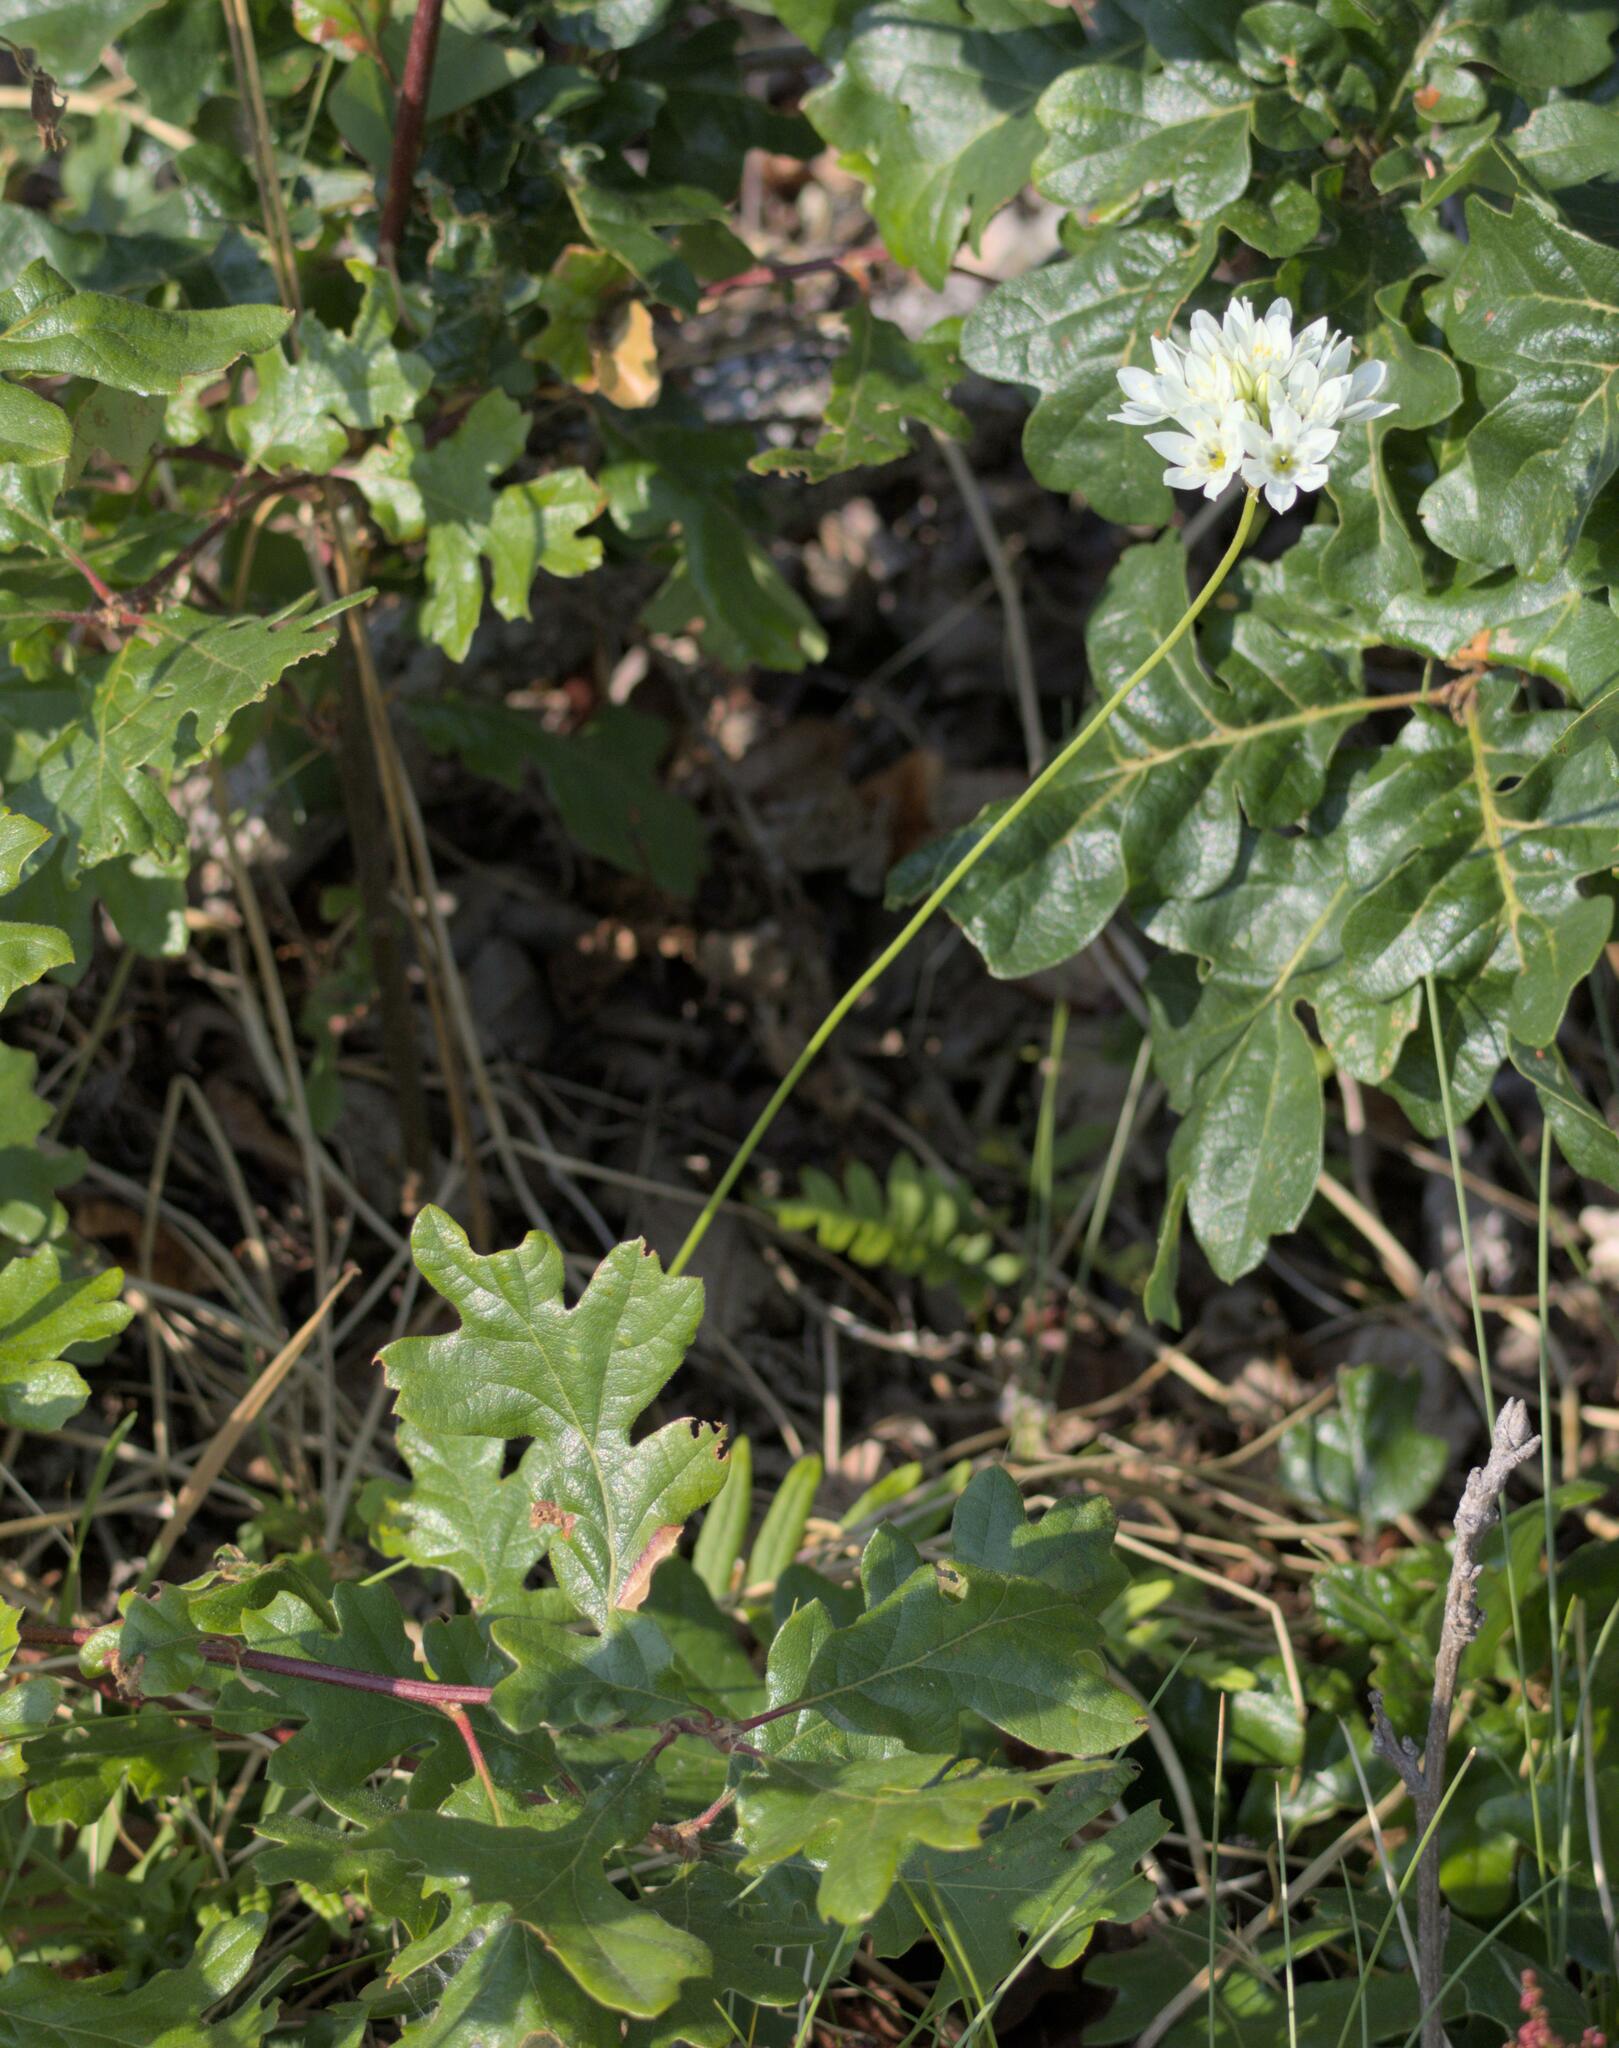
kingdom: Plantae
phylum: Tracheophyta
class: Liliopsida
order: Asparagales
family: Asparagaceae
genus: Triteleia
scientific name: Triteleia hyacinthina
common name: White brodiaea
